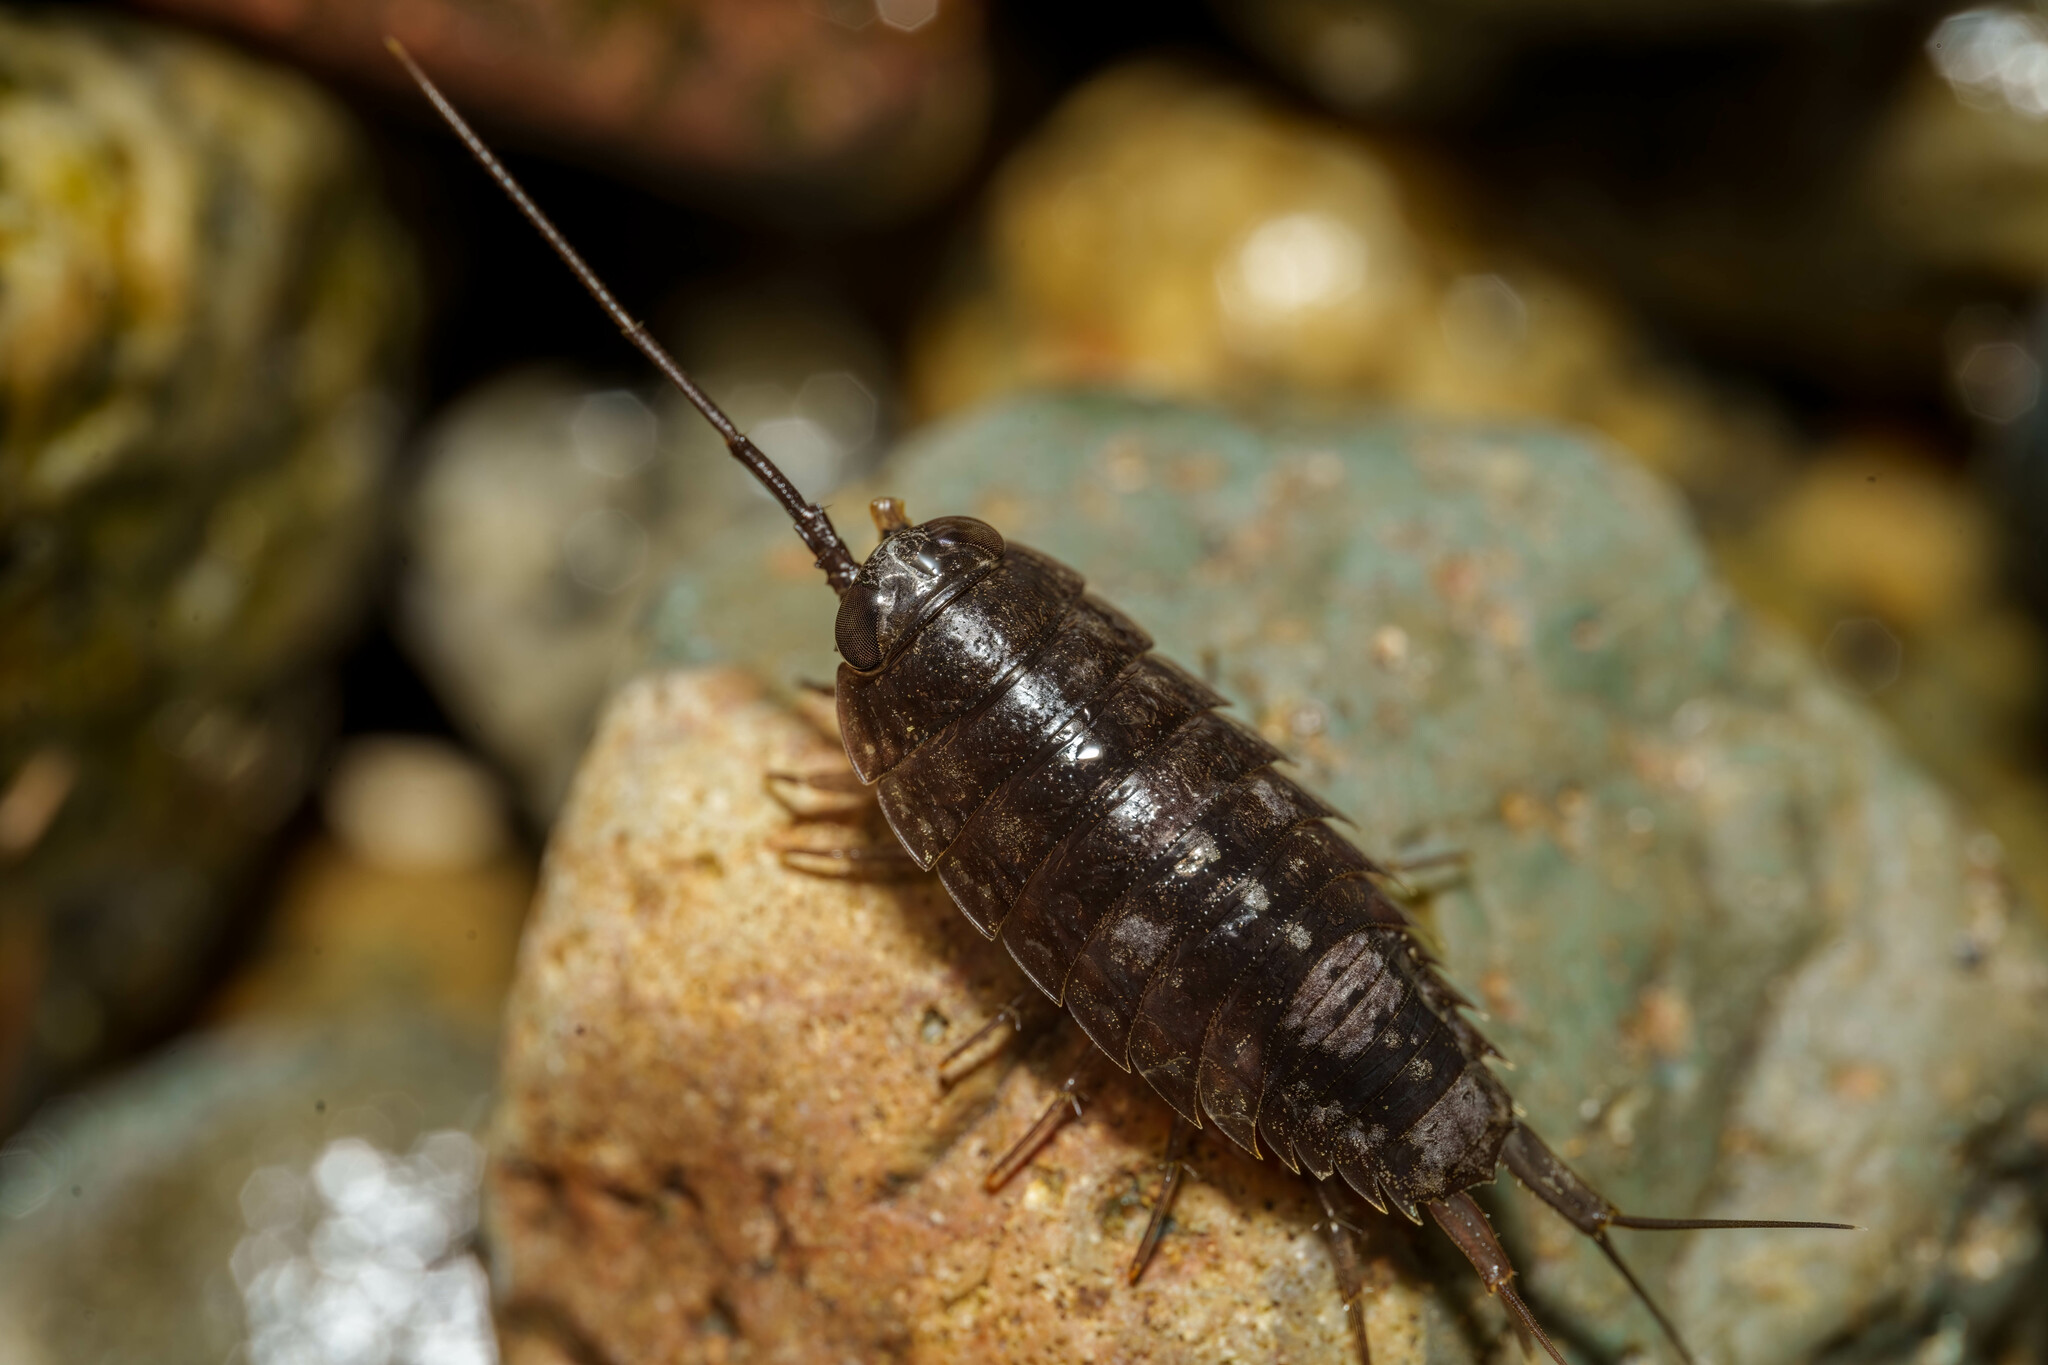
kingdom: Animalia
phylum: Arthropoda
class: Malacostraca
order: Isopoda
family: Ligiidae
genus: Ligia
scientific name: Ligia occidentalis
